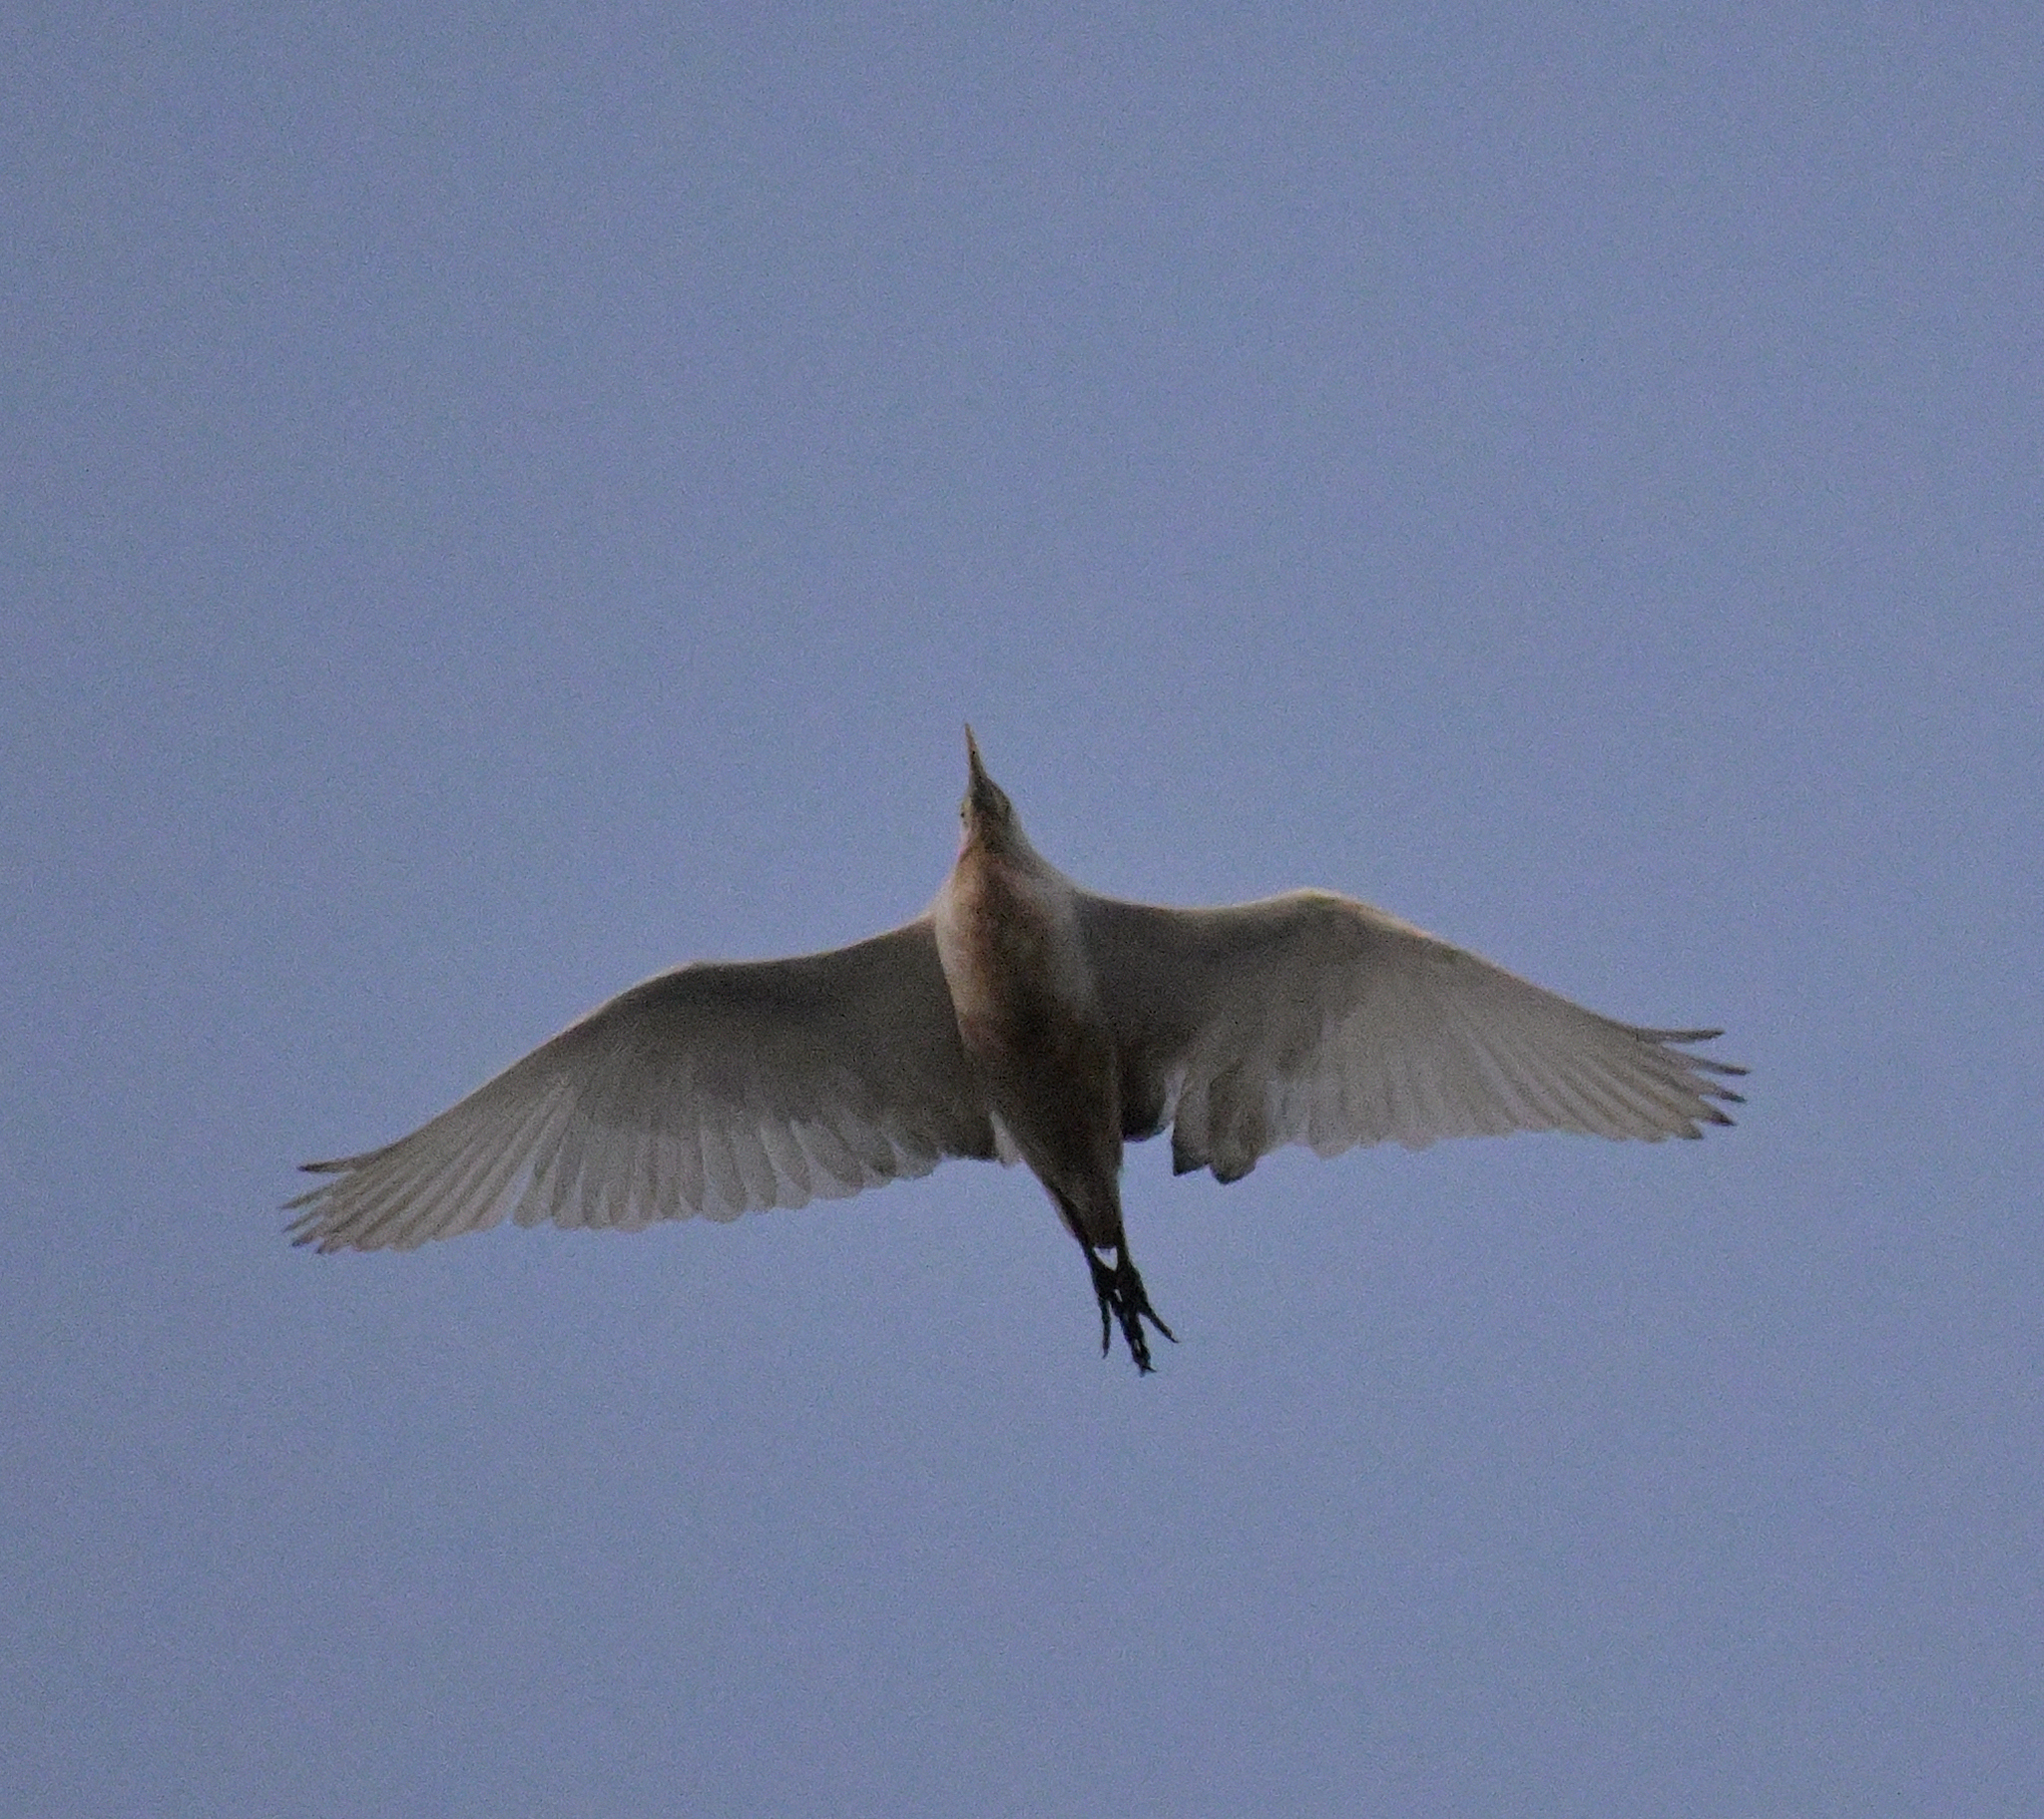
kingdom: Animalia
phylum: Chordata
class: Aves
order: Pelecaniformes
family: Ardeidae
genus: Bubulcus
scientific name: Bubulcus ibis
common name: Cattle egret
